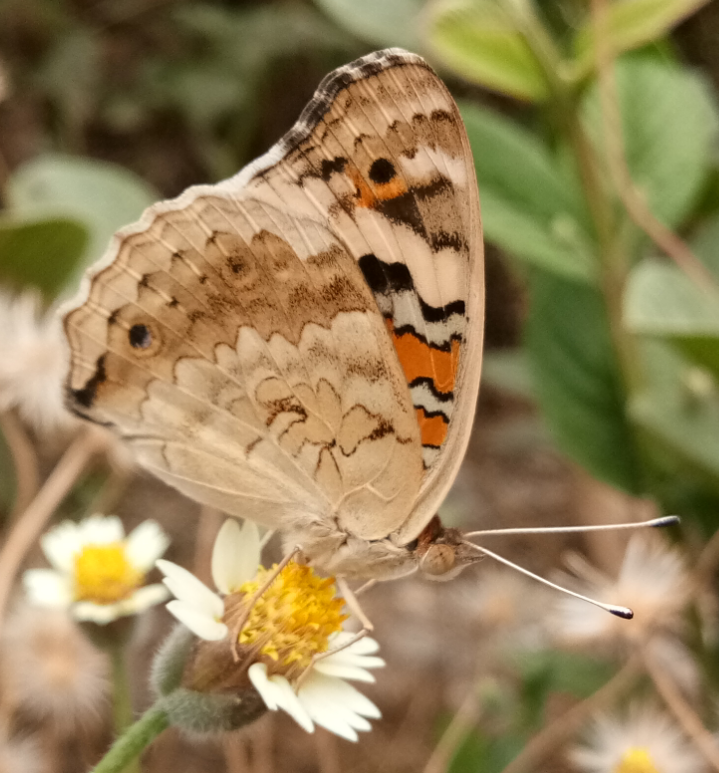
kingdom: Animalia
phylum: Arthropoda
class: Insecta
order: Lepidoptera
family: Nymphalidae
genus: Junonia
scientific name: Junonia orithya
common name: Blue pansy
